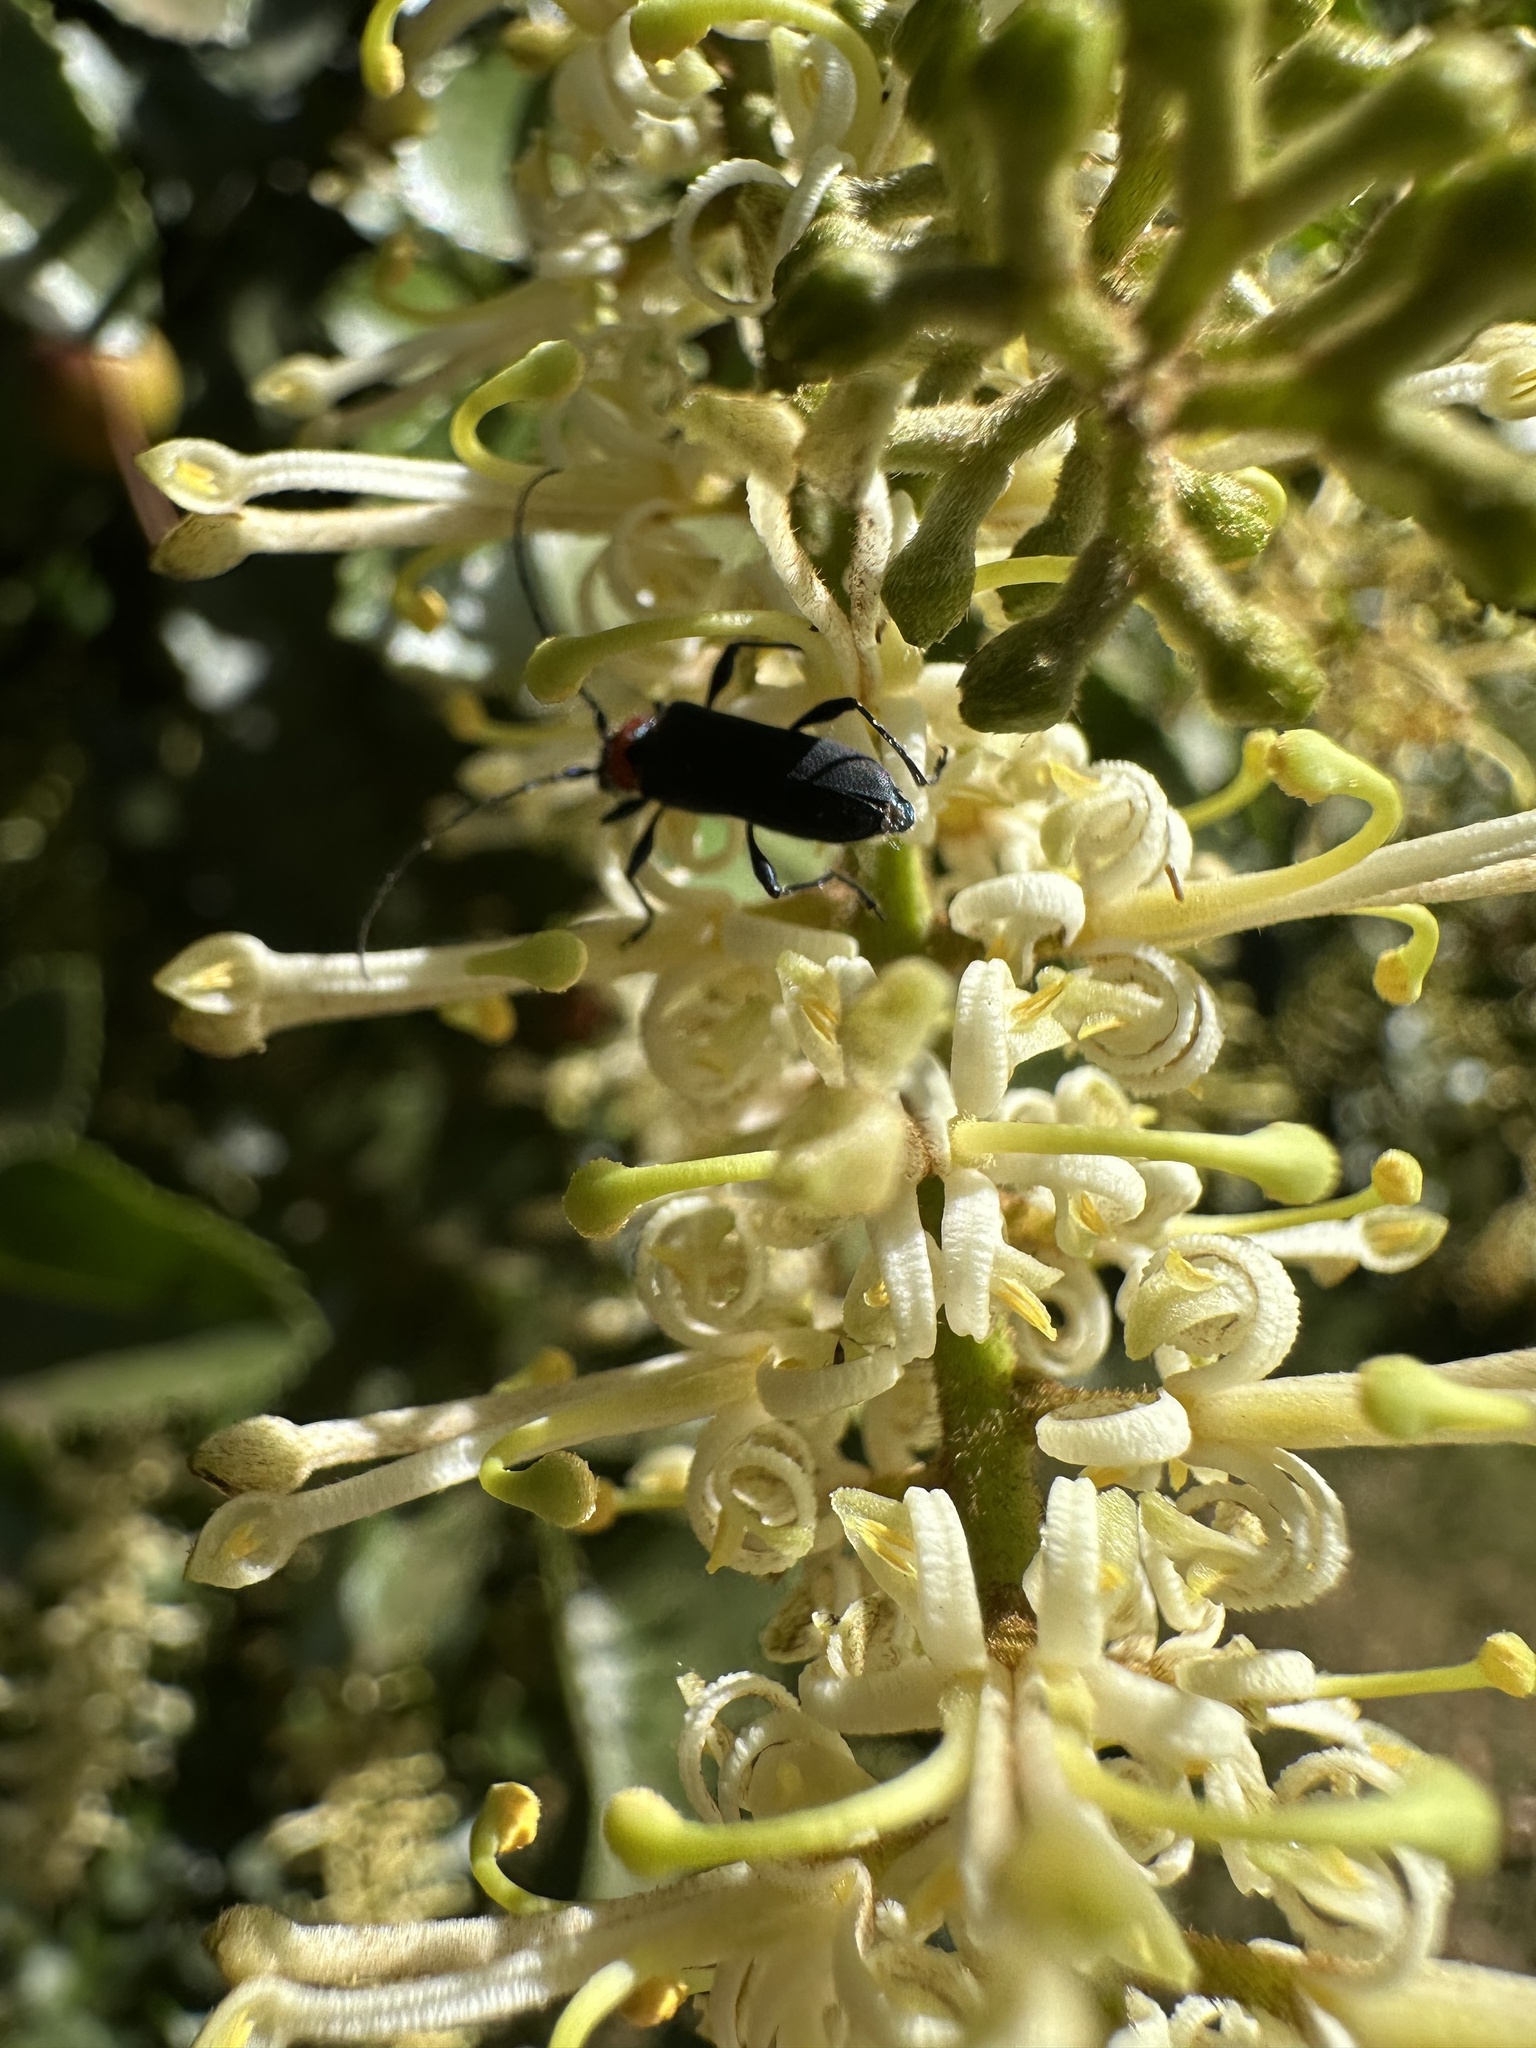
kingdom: Animalia
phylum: Arthropoda
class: Insecta
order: Coleoptera
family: Cerambycidae
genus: Eryphus
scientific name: Eryphus laetus
